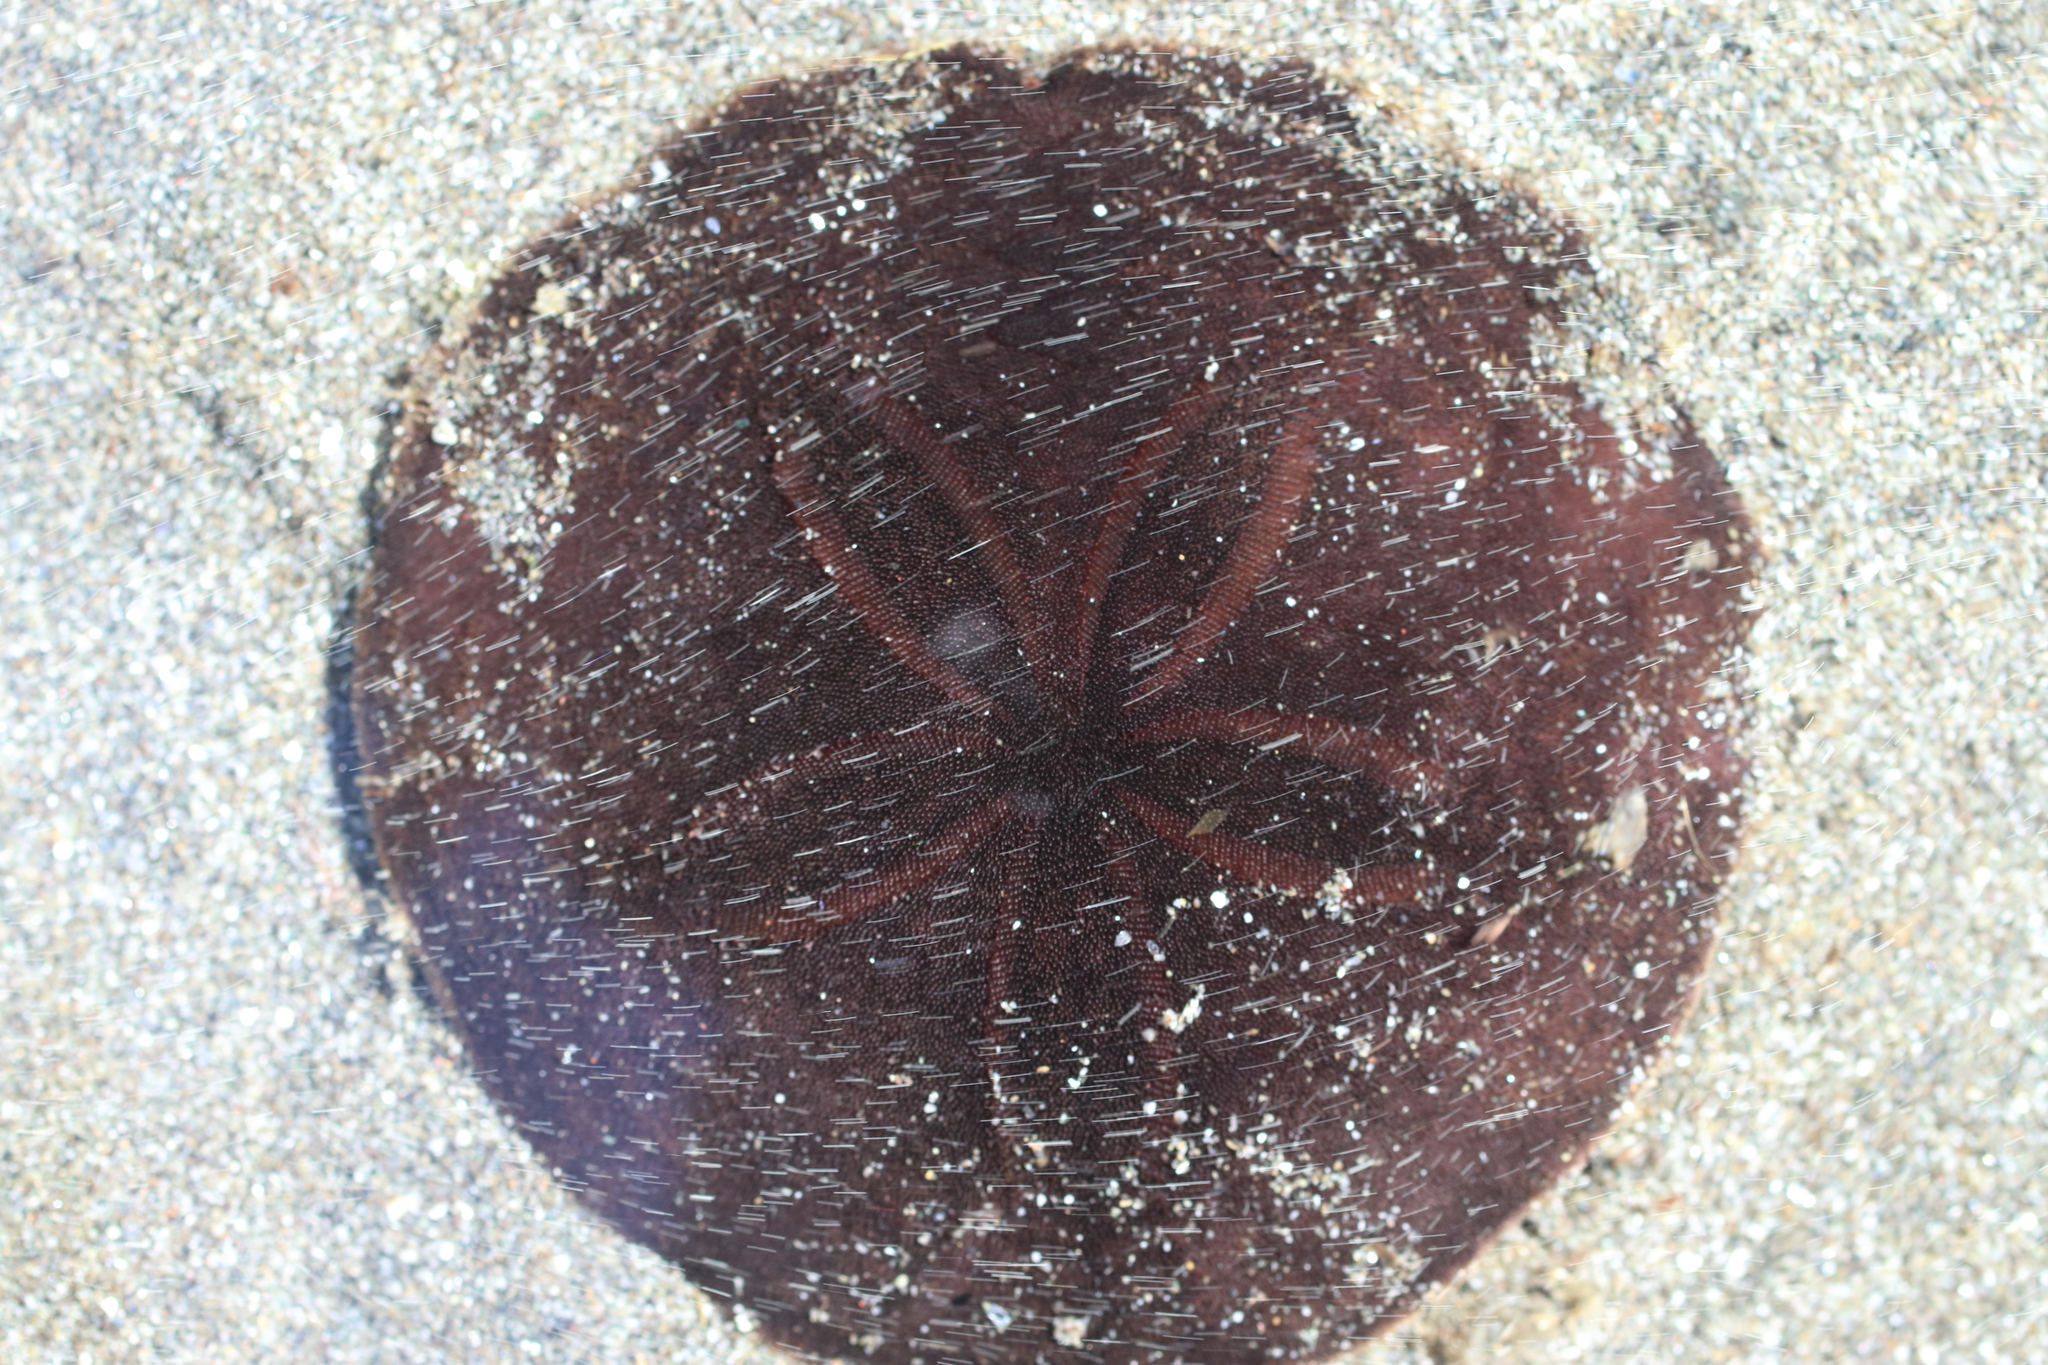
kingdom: Animalia
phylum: Echinodermata
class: Echinoidea
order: Echinolampadacea
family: Echinarachniidae
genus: Echinarachnius
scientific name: Echinarachnius parma
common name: Common sand dollar
